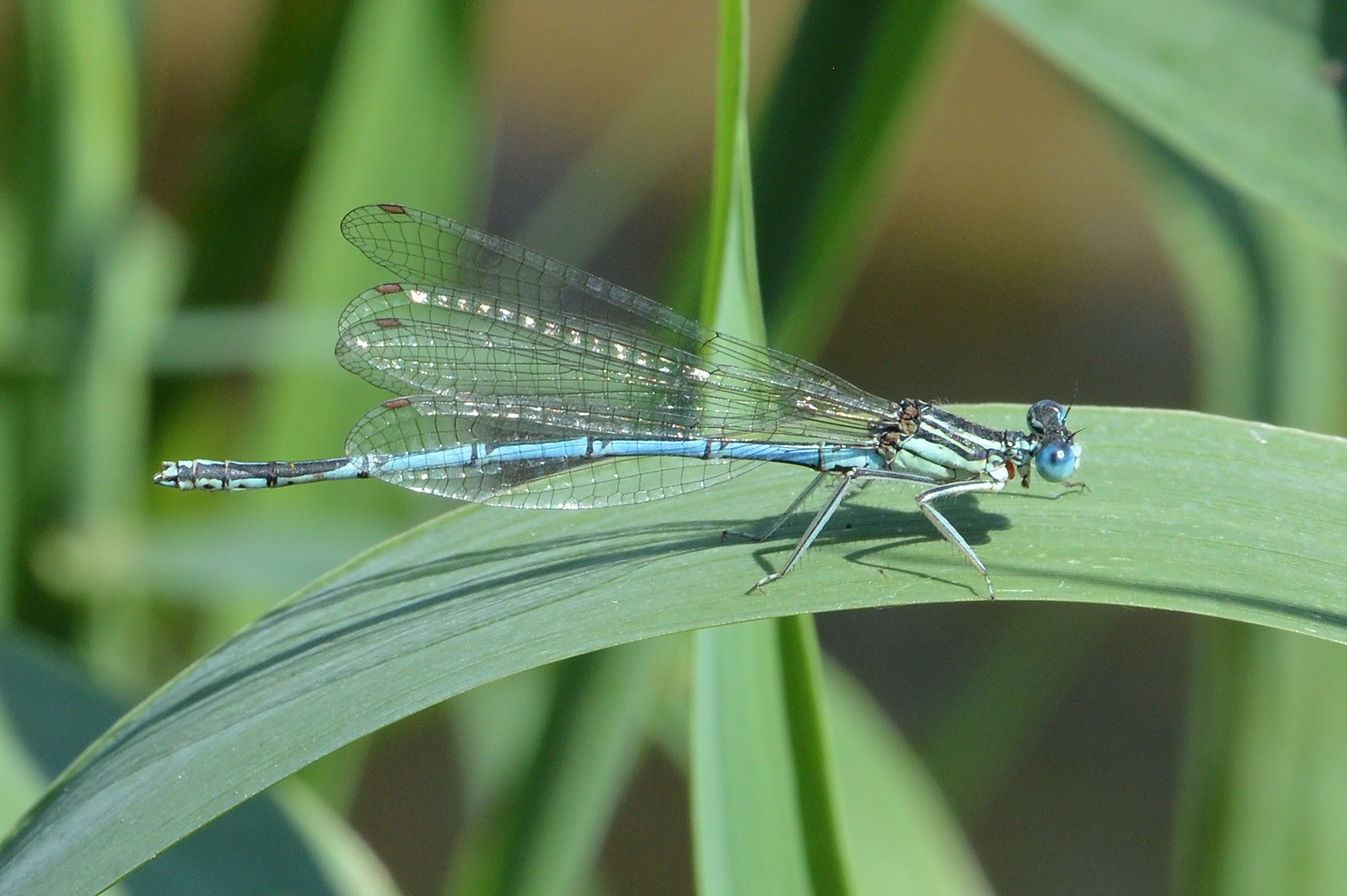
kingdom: Animalia
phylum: Arthropoda
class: Insecta
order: Odonata
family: Platycnemididae
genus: Platycnemis
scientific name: Platycnemis pennipes
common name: White-legged damselfly
